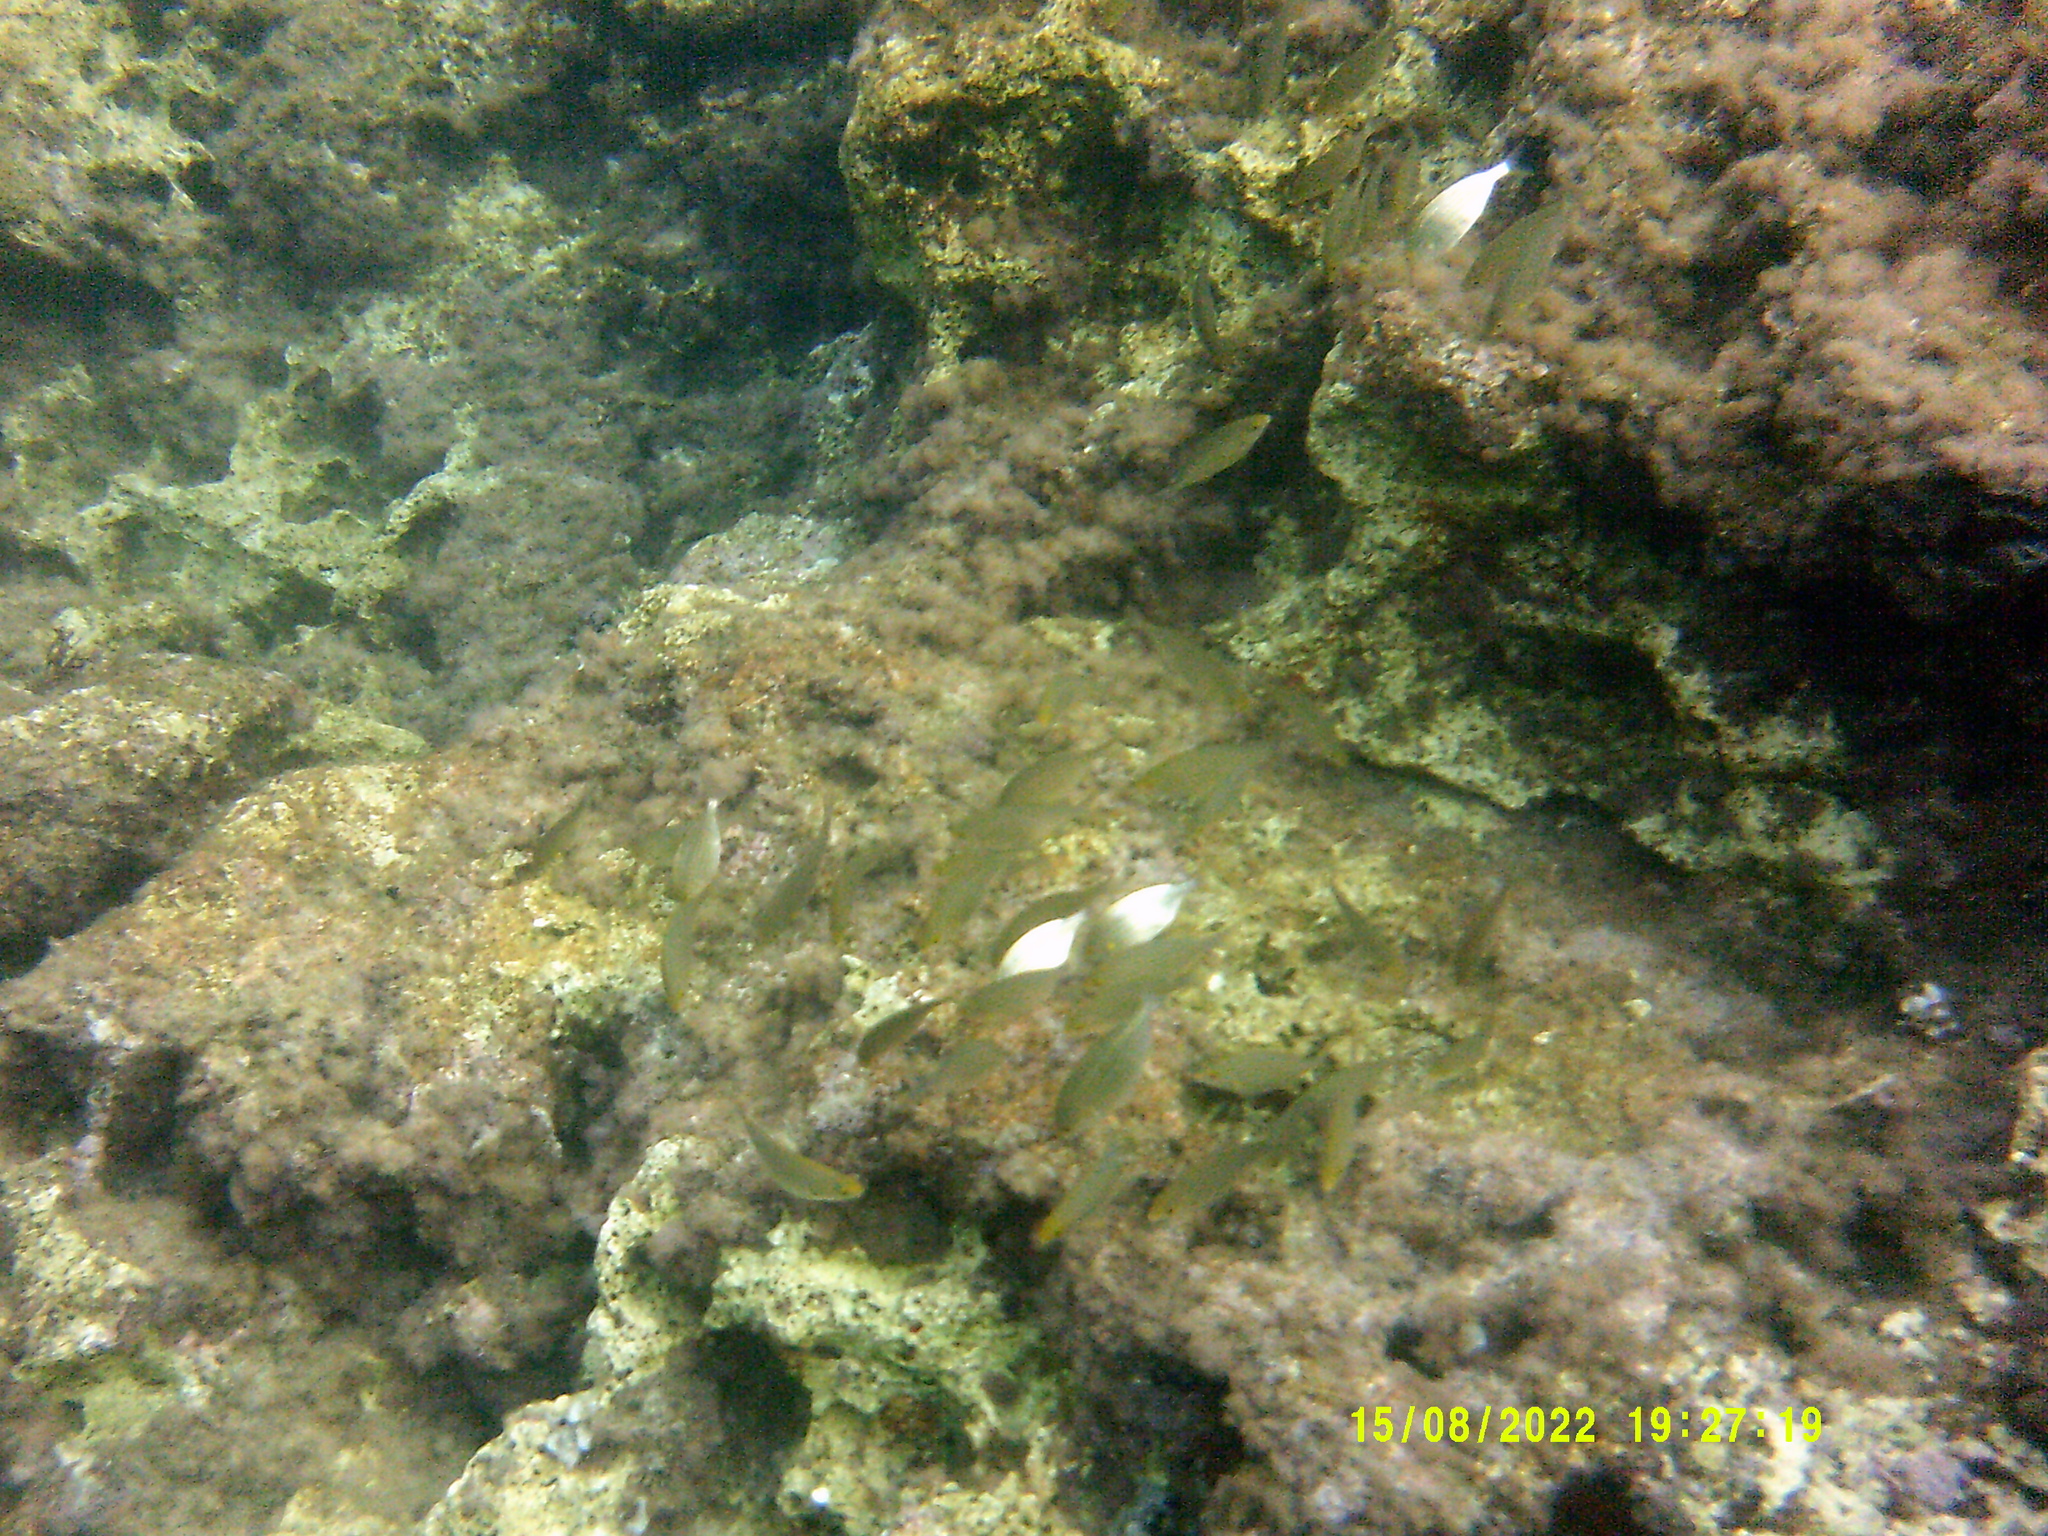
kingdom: Animalia
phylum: Chordata
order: Perciformes
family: Sparidae
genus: Sarpa
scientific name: Sarpa salpa
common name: Salema
